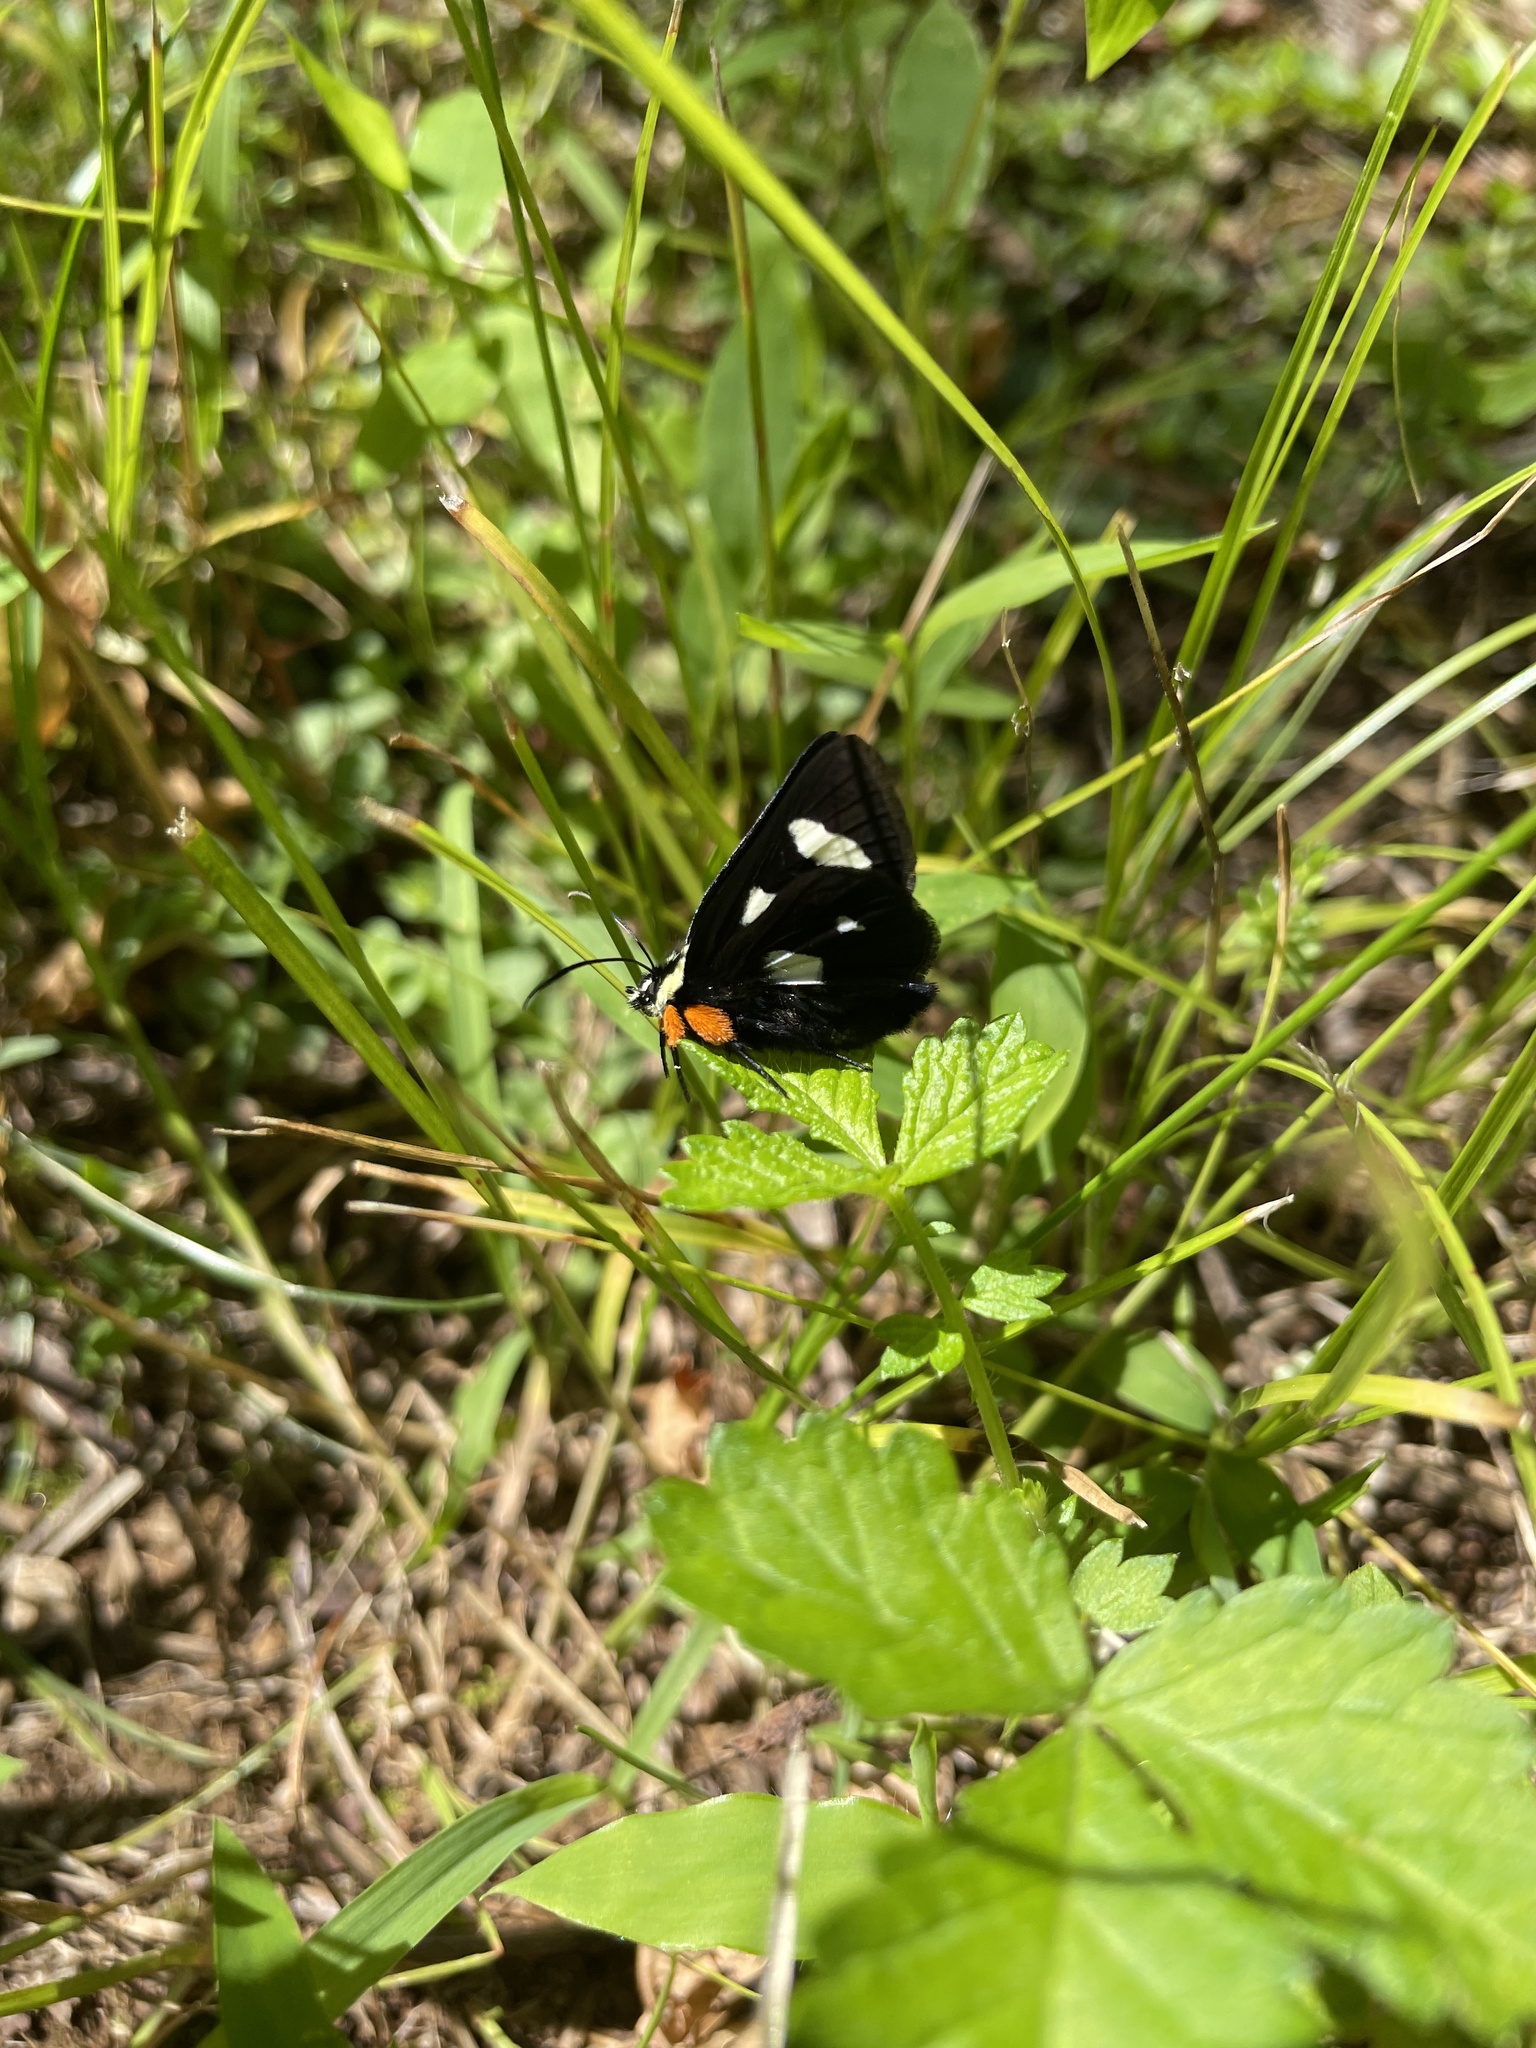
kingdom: Animalia
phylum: Arthropoda
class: Insecta
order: Lepidoptera
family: Noctuidae
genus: Alypia
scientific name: Alypia octomaculata
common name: Eight-spotted forester
